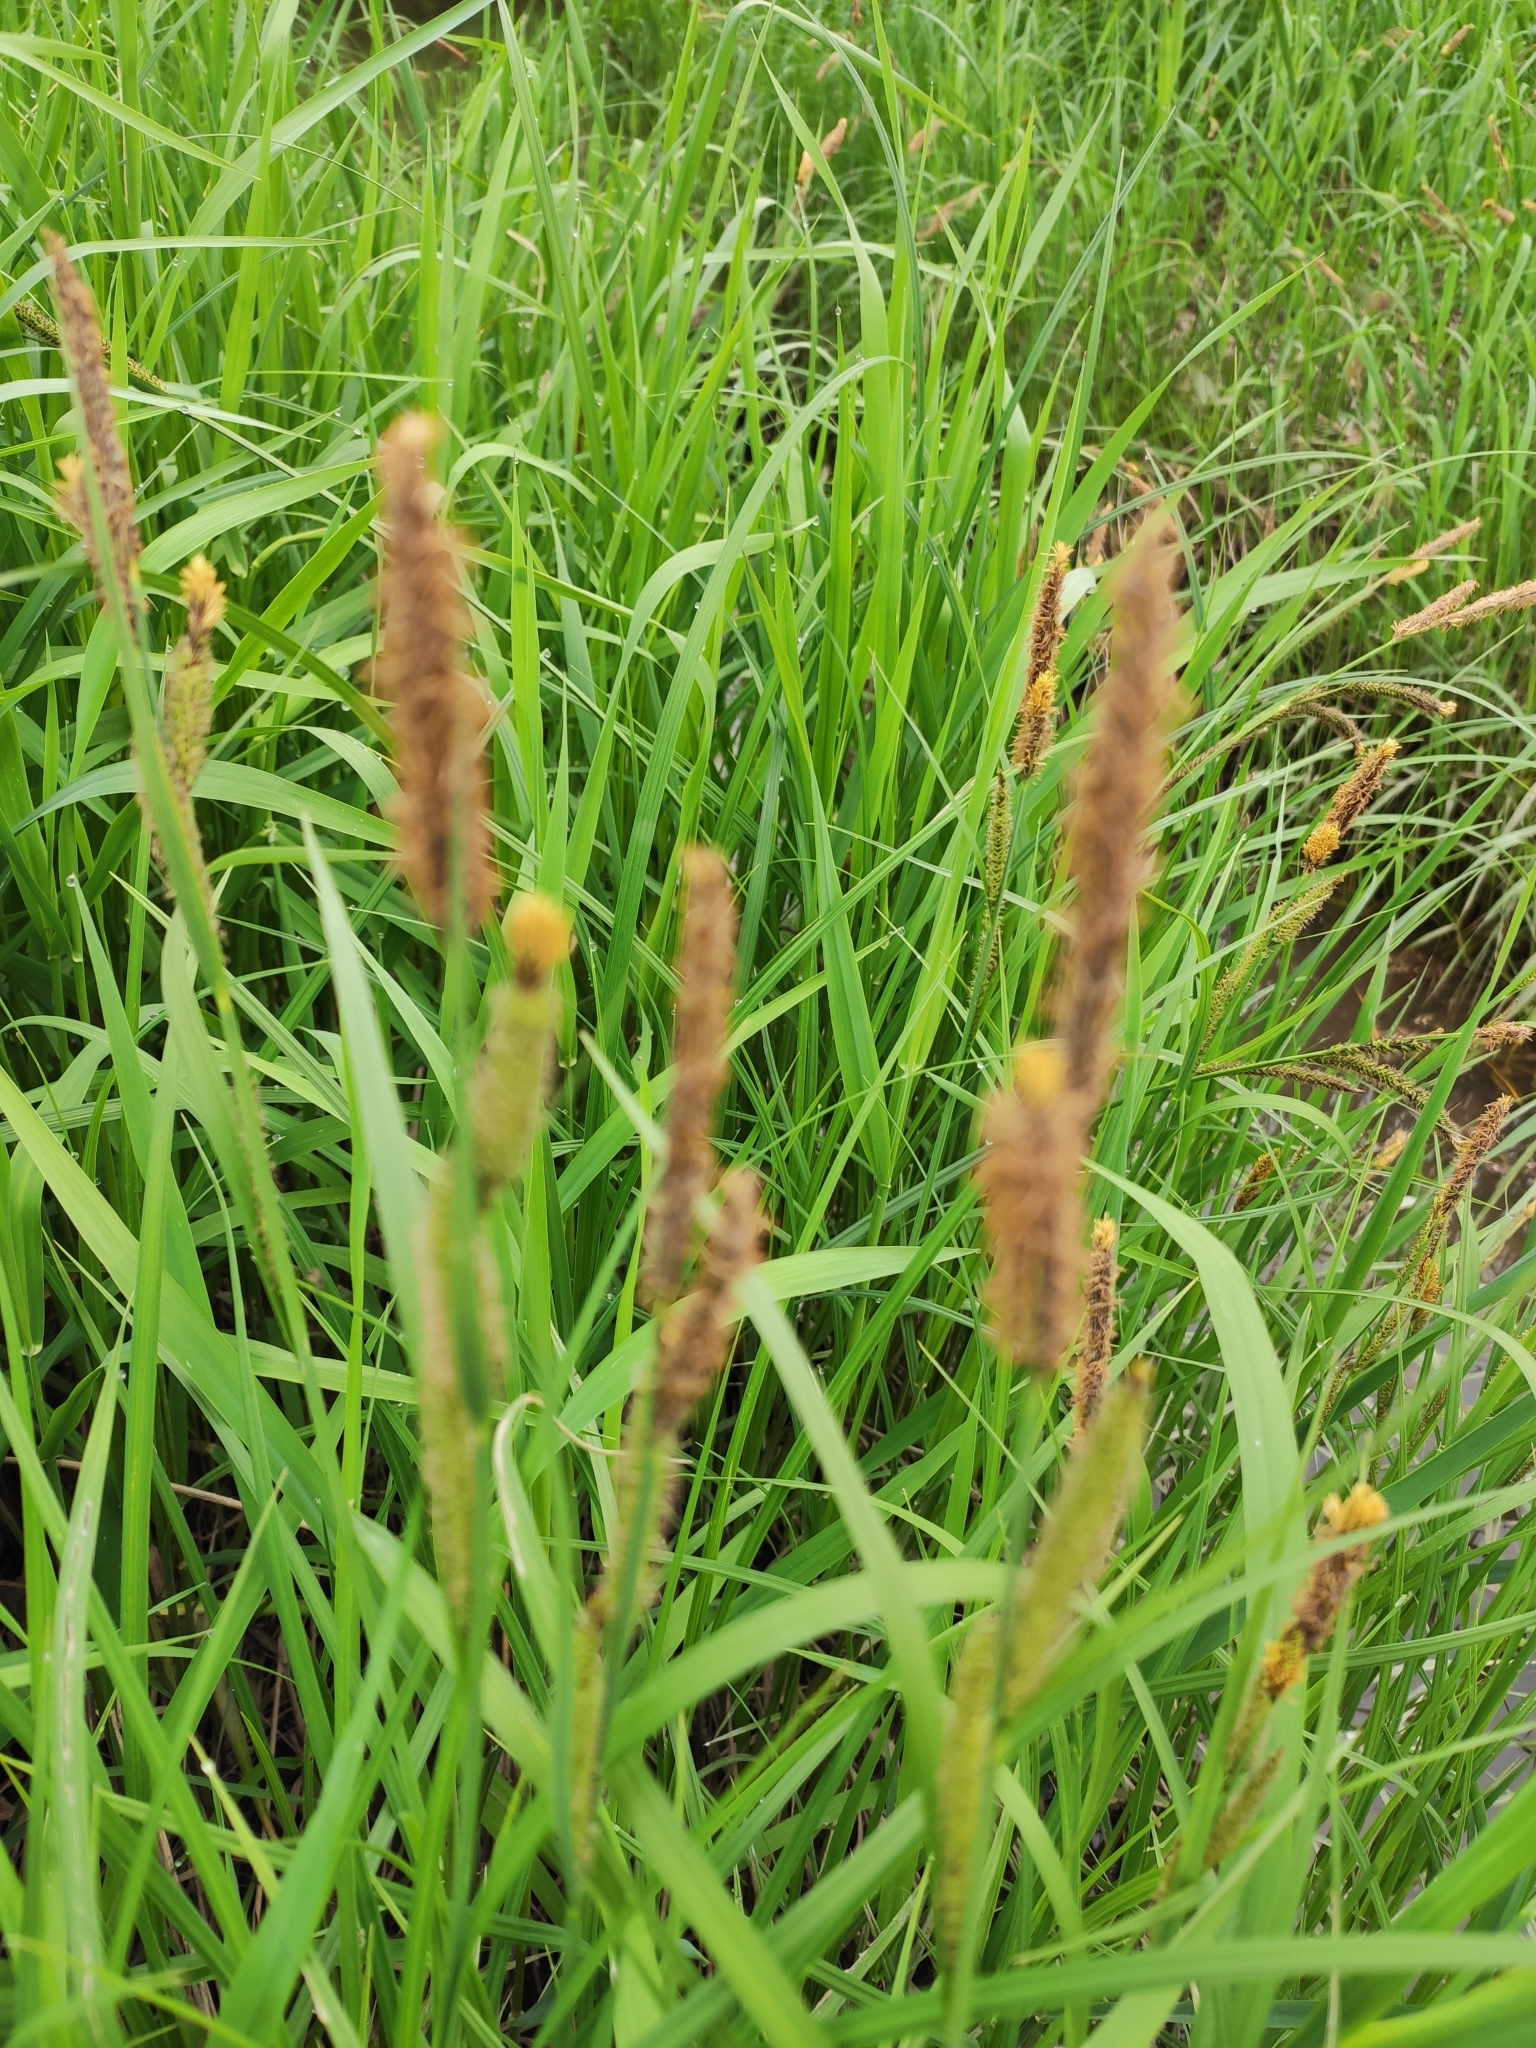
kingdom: Plantae
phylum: Tracheophyta
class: Liliopsida
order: Poales
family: Poaceae
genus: Alopecurus
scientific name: Alopecurus pratensis
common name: Meadow foxtail
